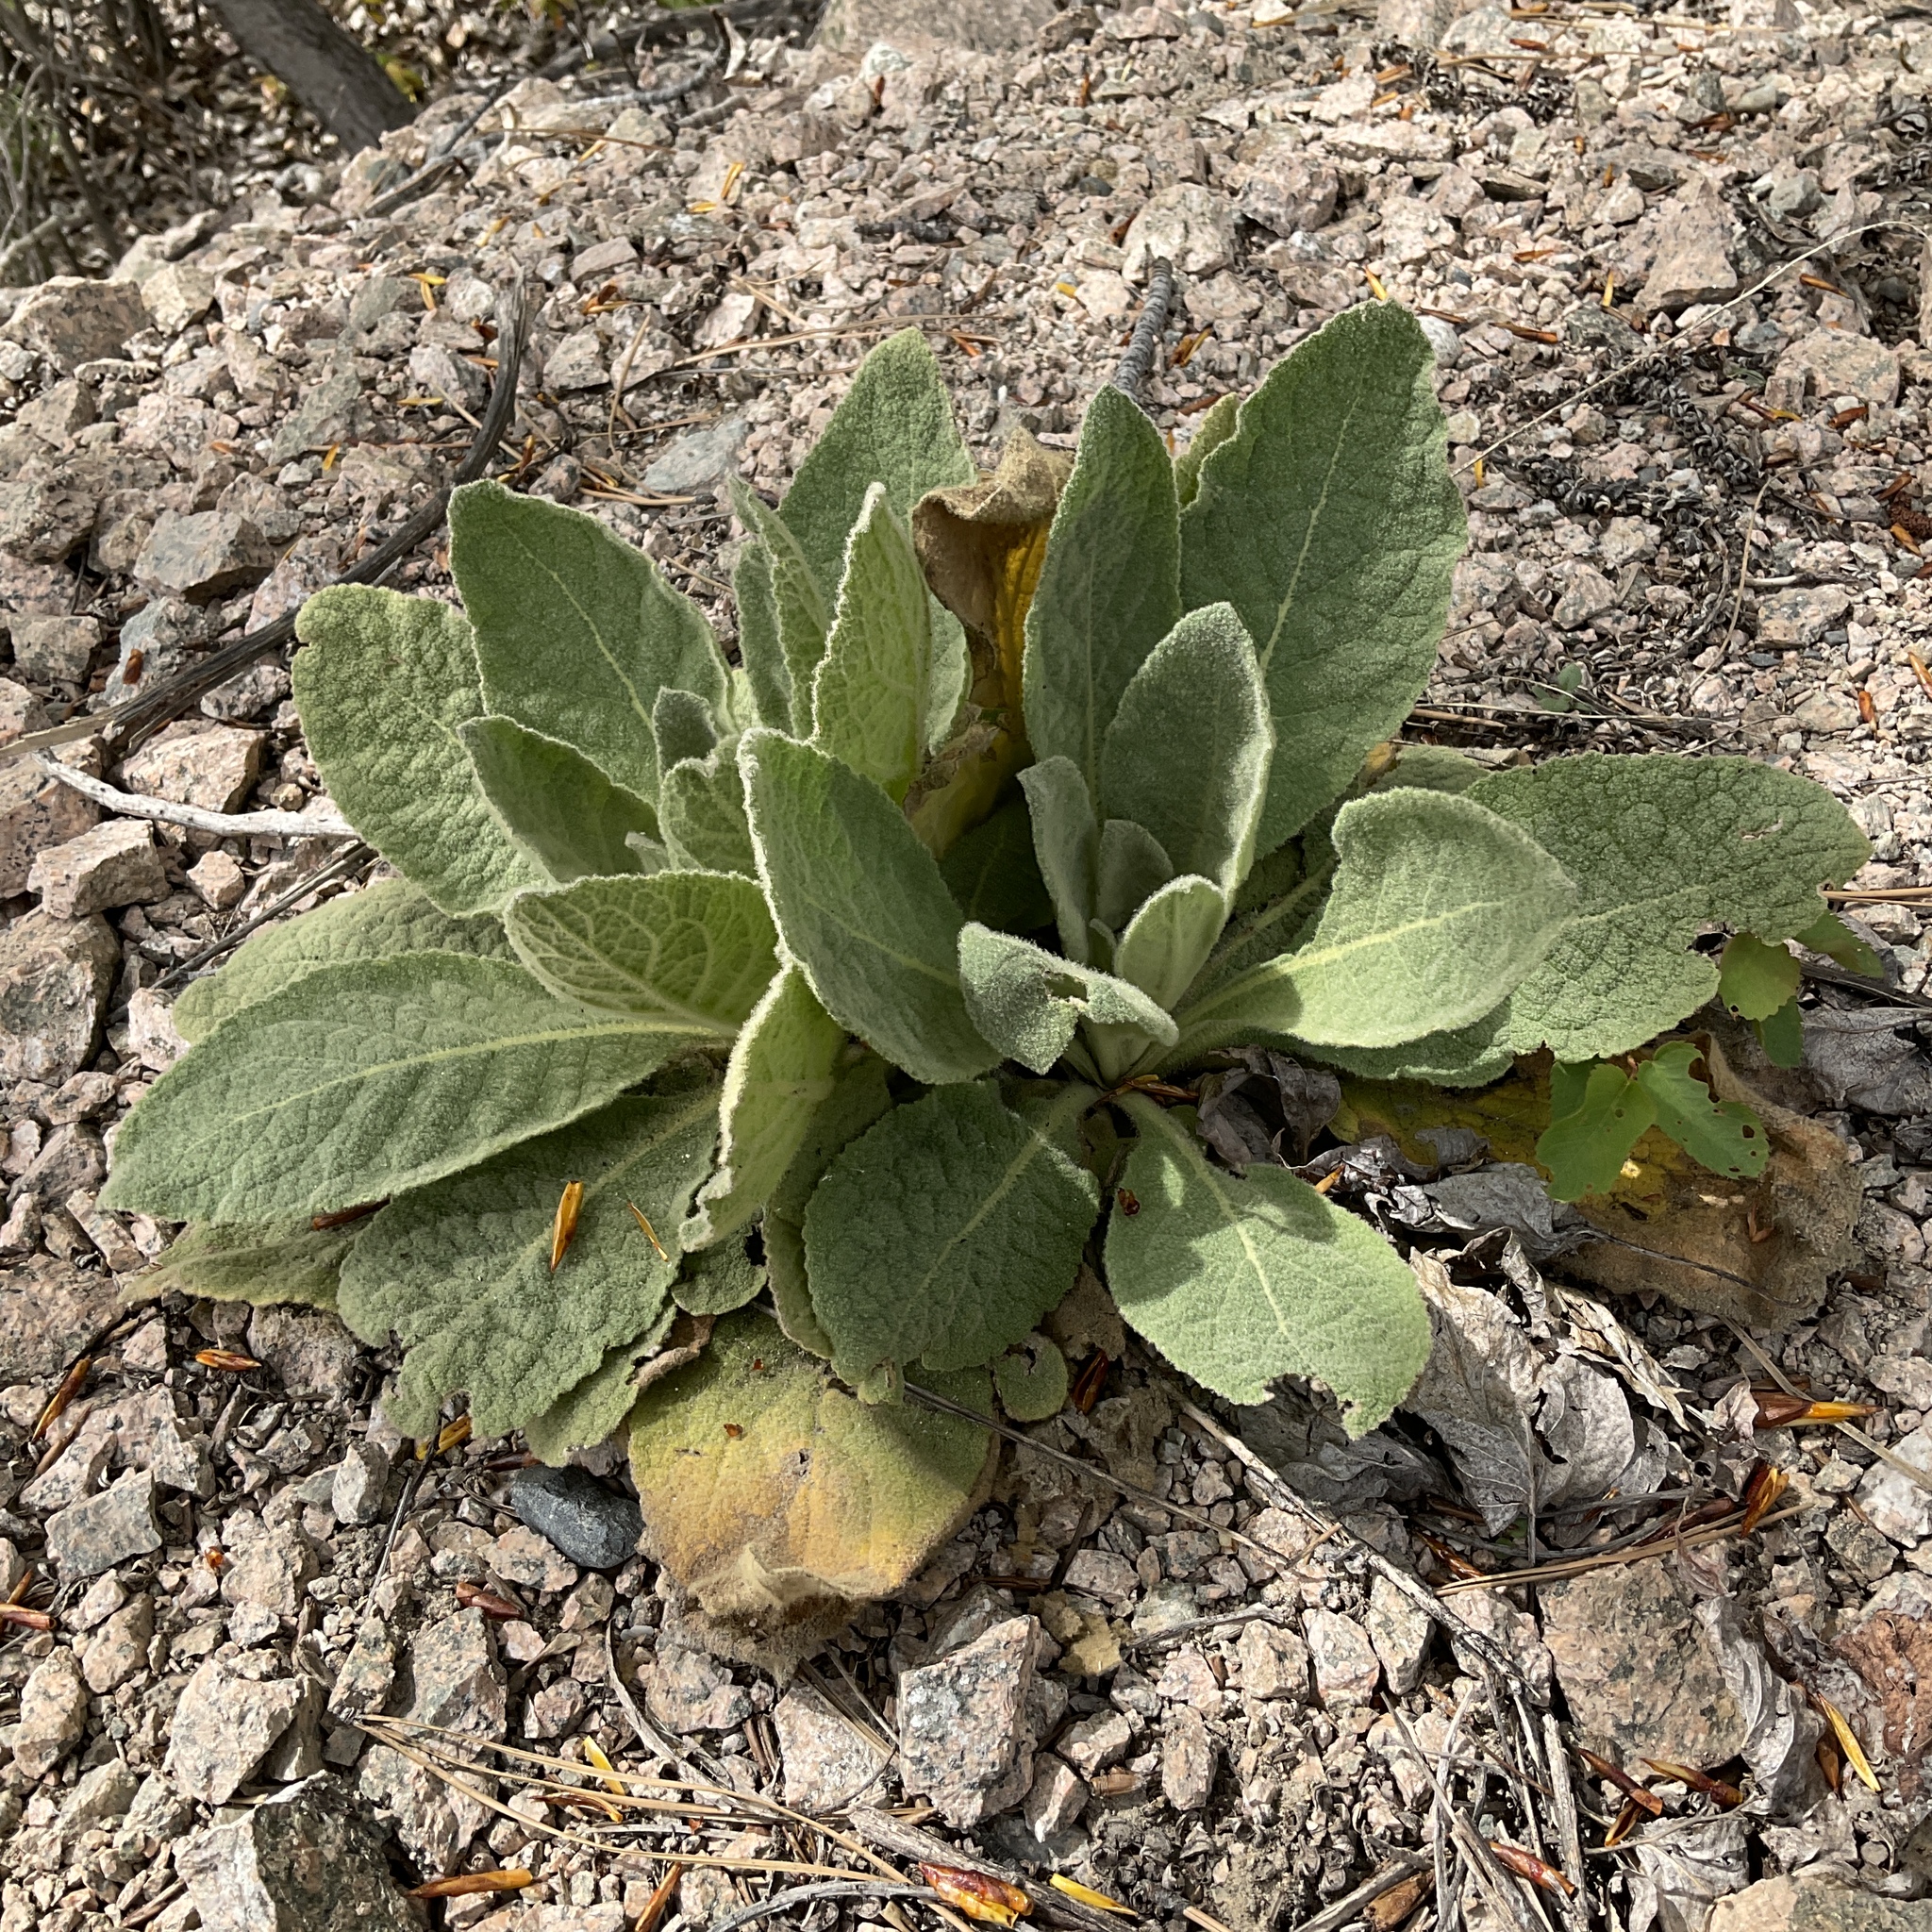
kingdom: Plantae
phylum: Tracheophyta
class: Magnoliopsida
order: Lamiales
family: Scrophulariaceae
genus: Verbascum
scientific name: Verbascum thapsus
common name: Common mullein
